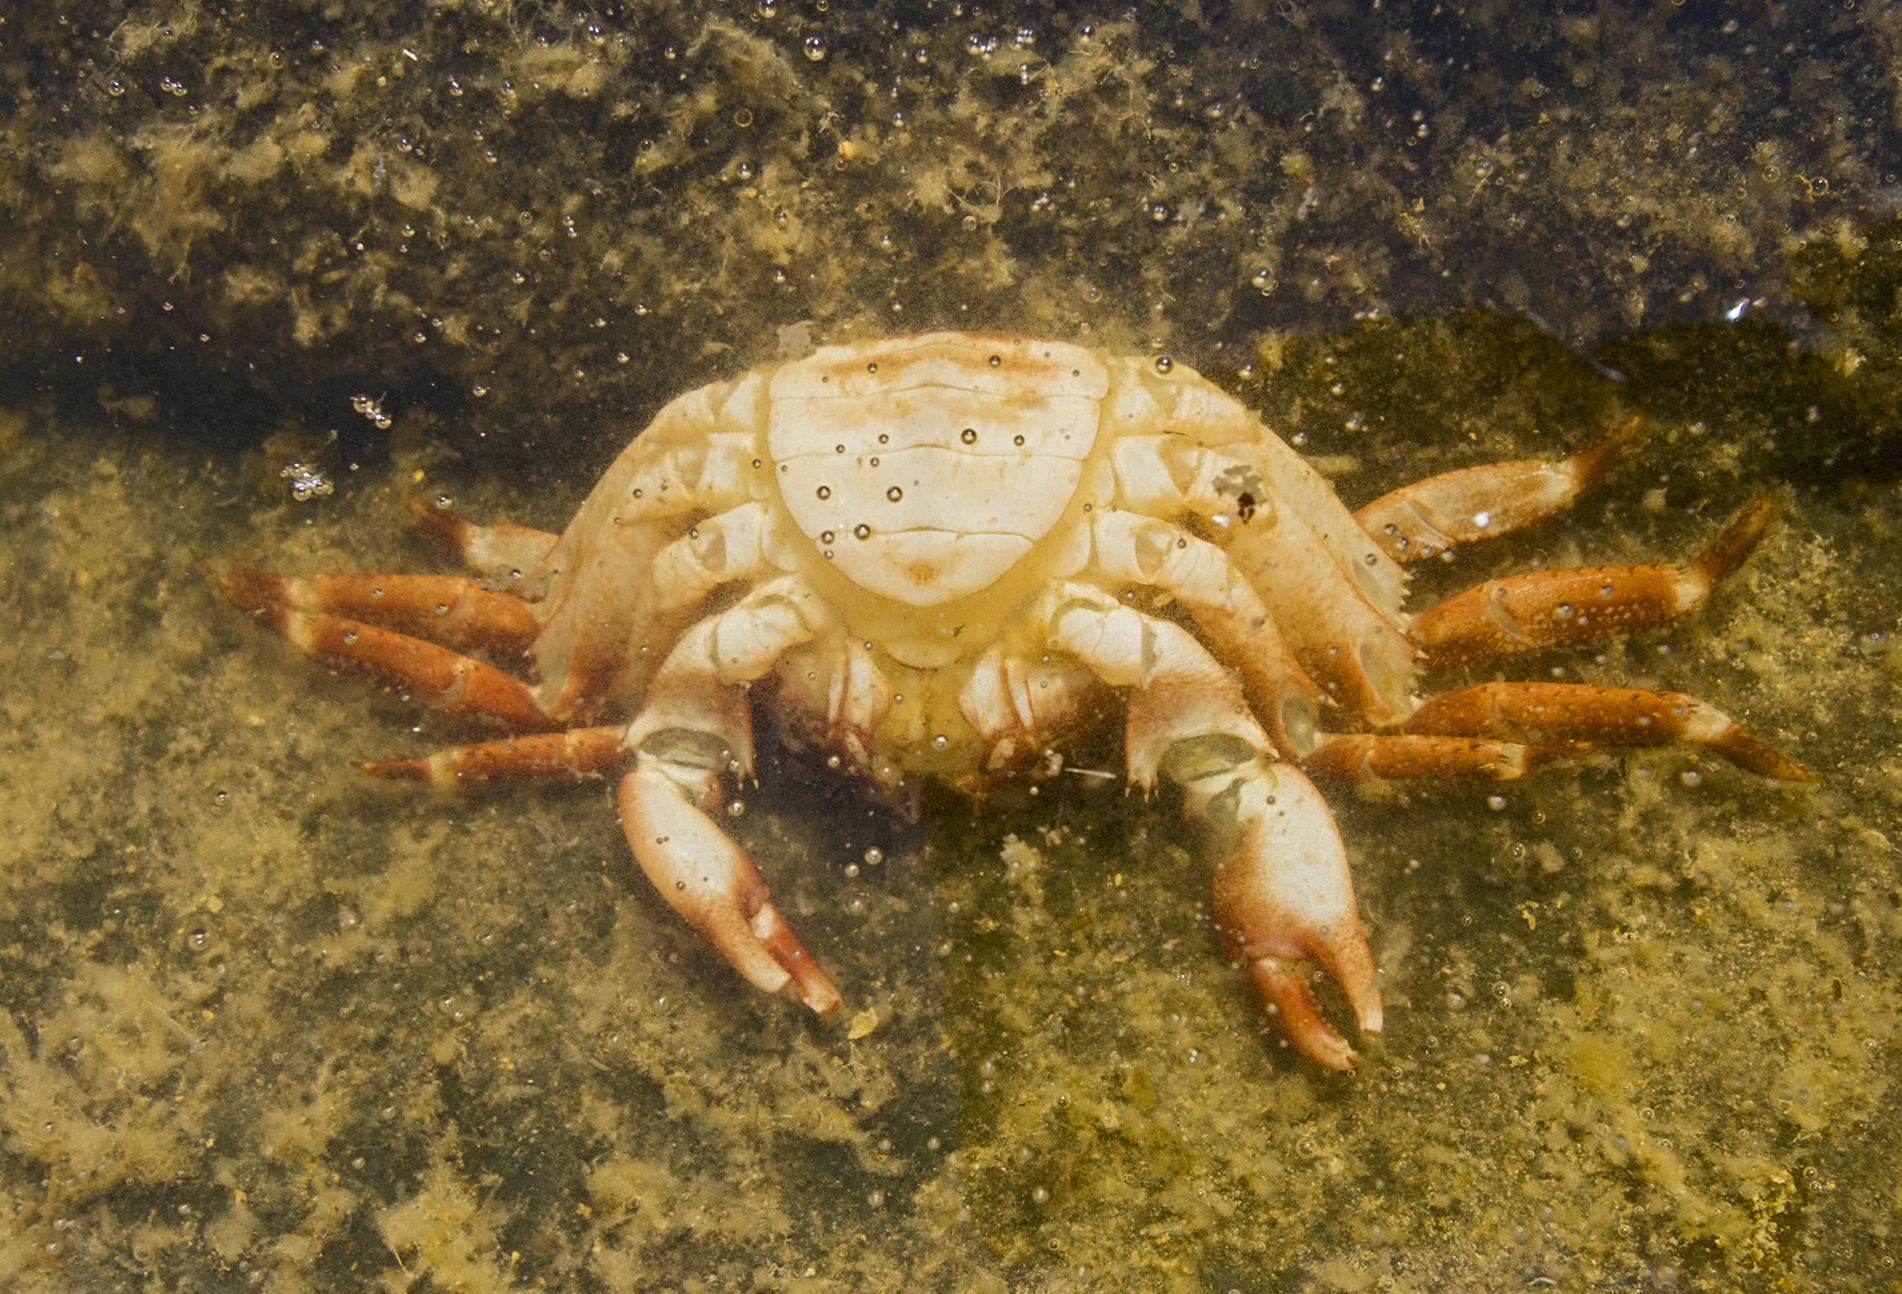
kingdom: Animalia
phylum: Arthropoda
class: Malacostraca
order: Decapoda
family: Grapsidae
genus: Pachygrapsus
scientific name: Pachygrapsus marmoratus
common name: Marbled rock crab
